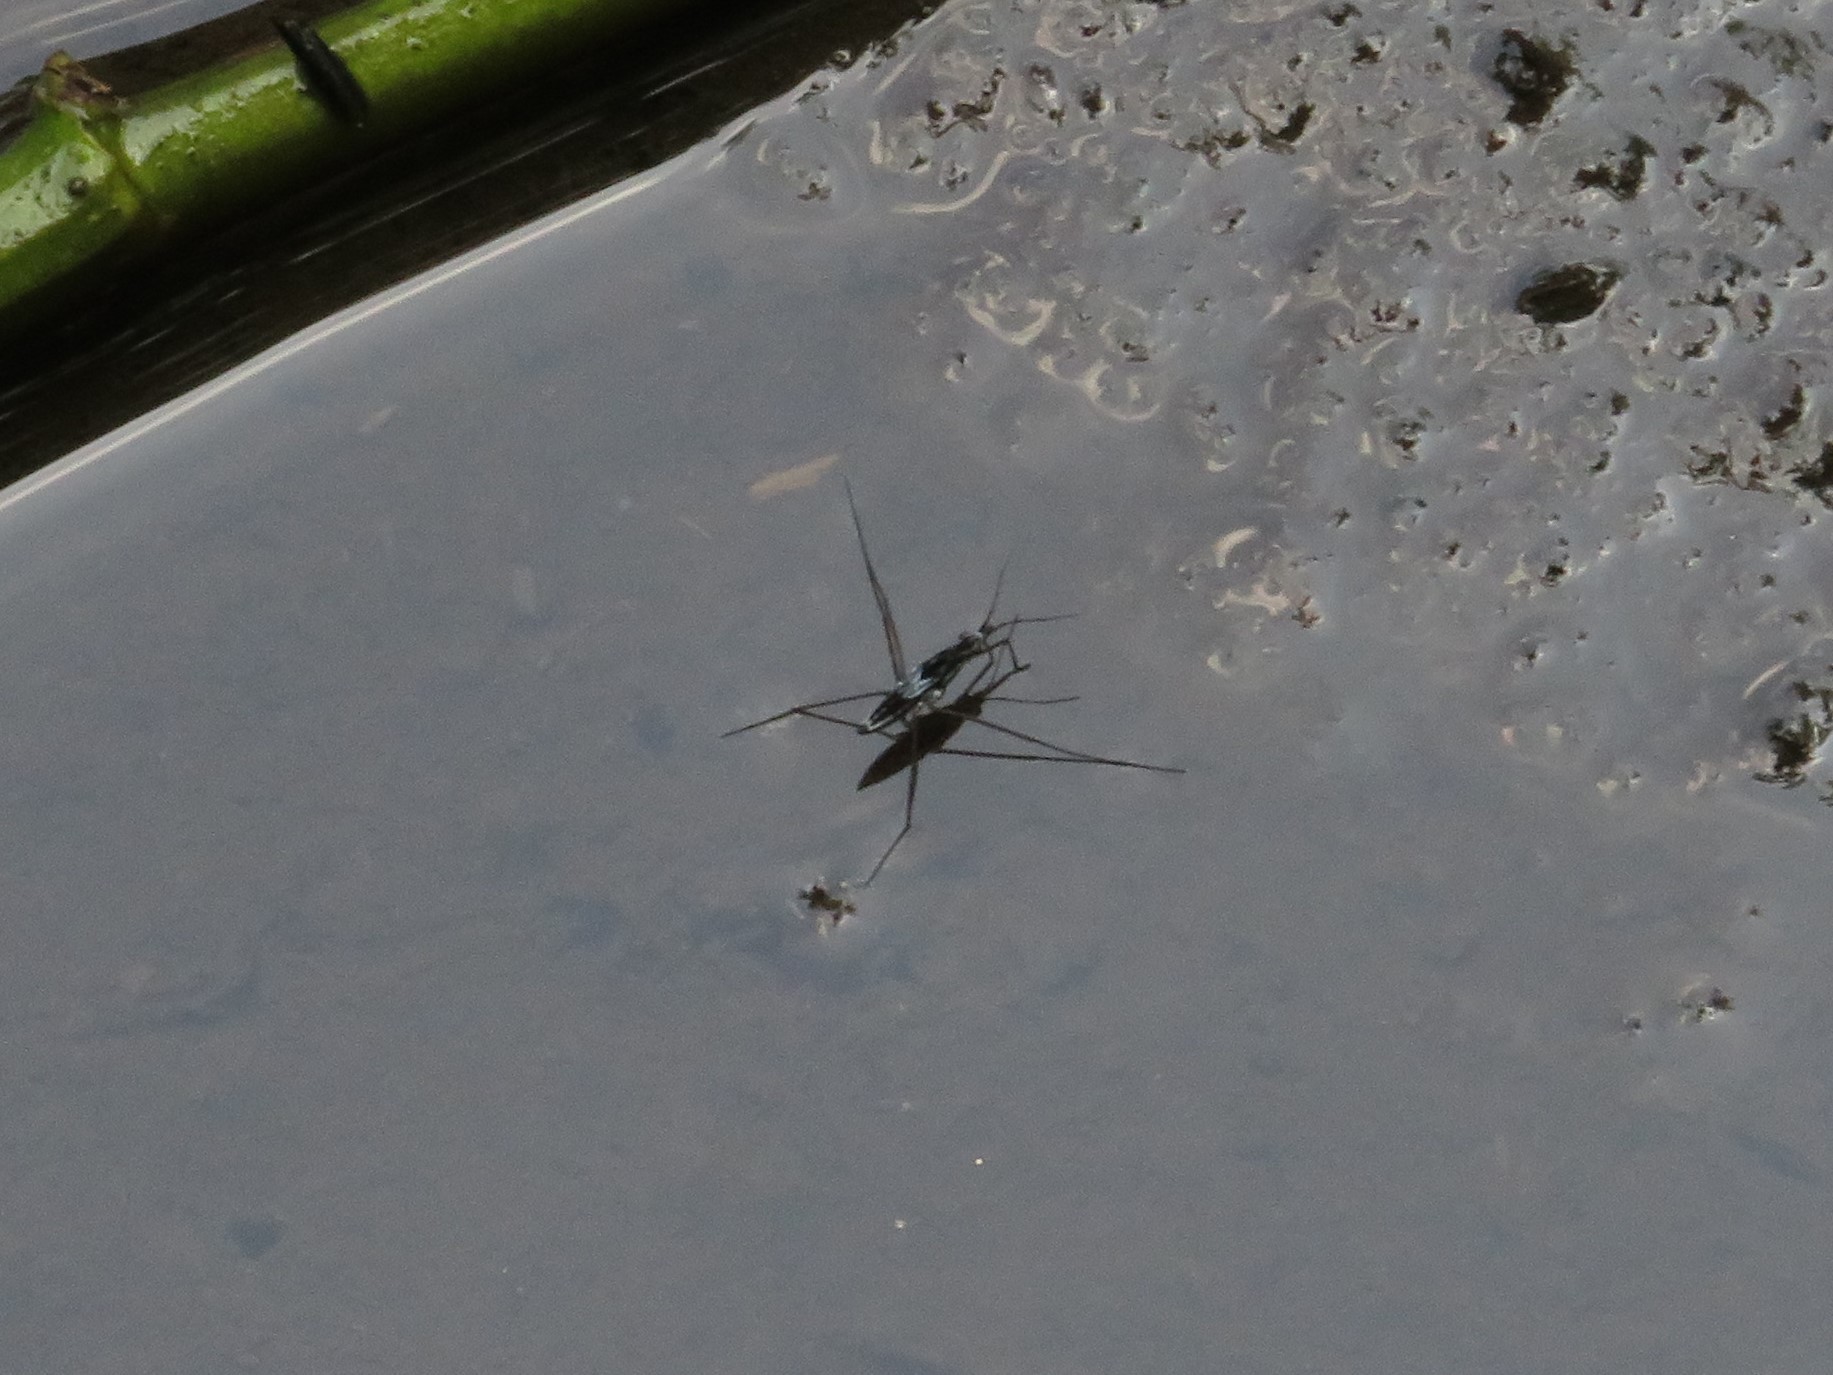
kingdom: Animalia
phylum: Arthropoda
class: Insecta
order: Hemiptera
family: Gerridae
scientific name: Gerridae
